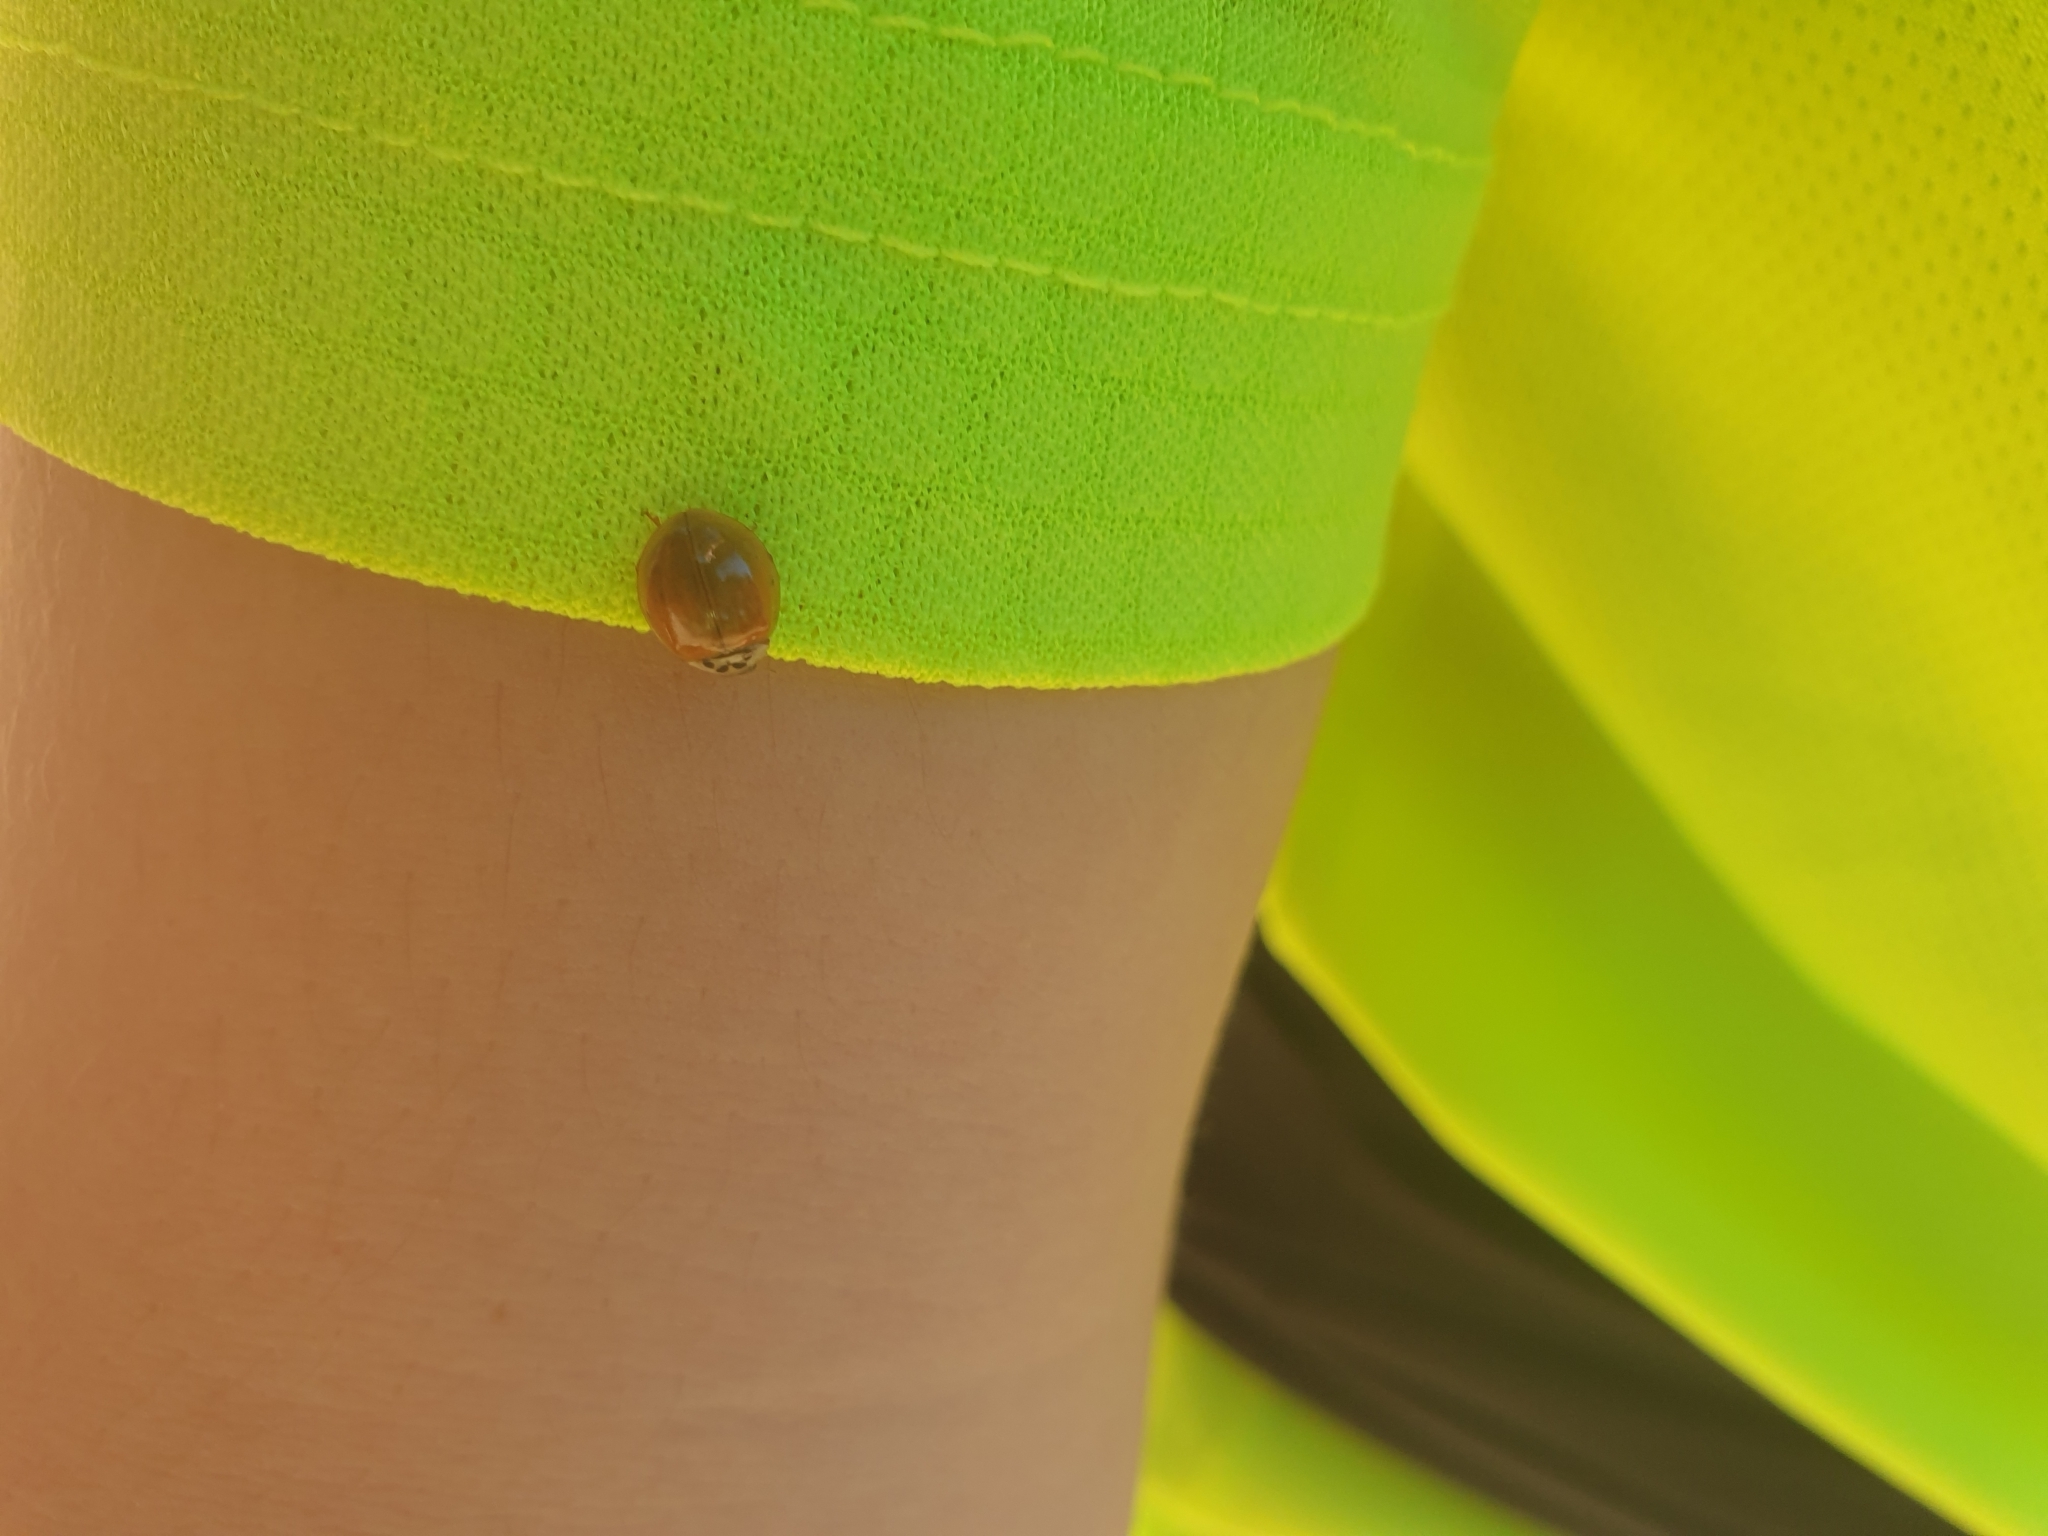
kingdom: Animalia
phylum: Arthropoda
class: Insecta
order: Coleoptera
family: Coccinellidae
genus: Harmonia
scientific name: Harmonia axyridis
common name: Harlequin ladybird
